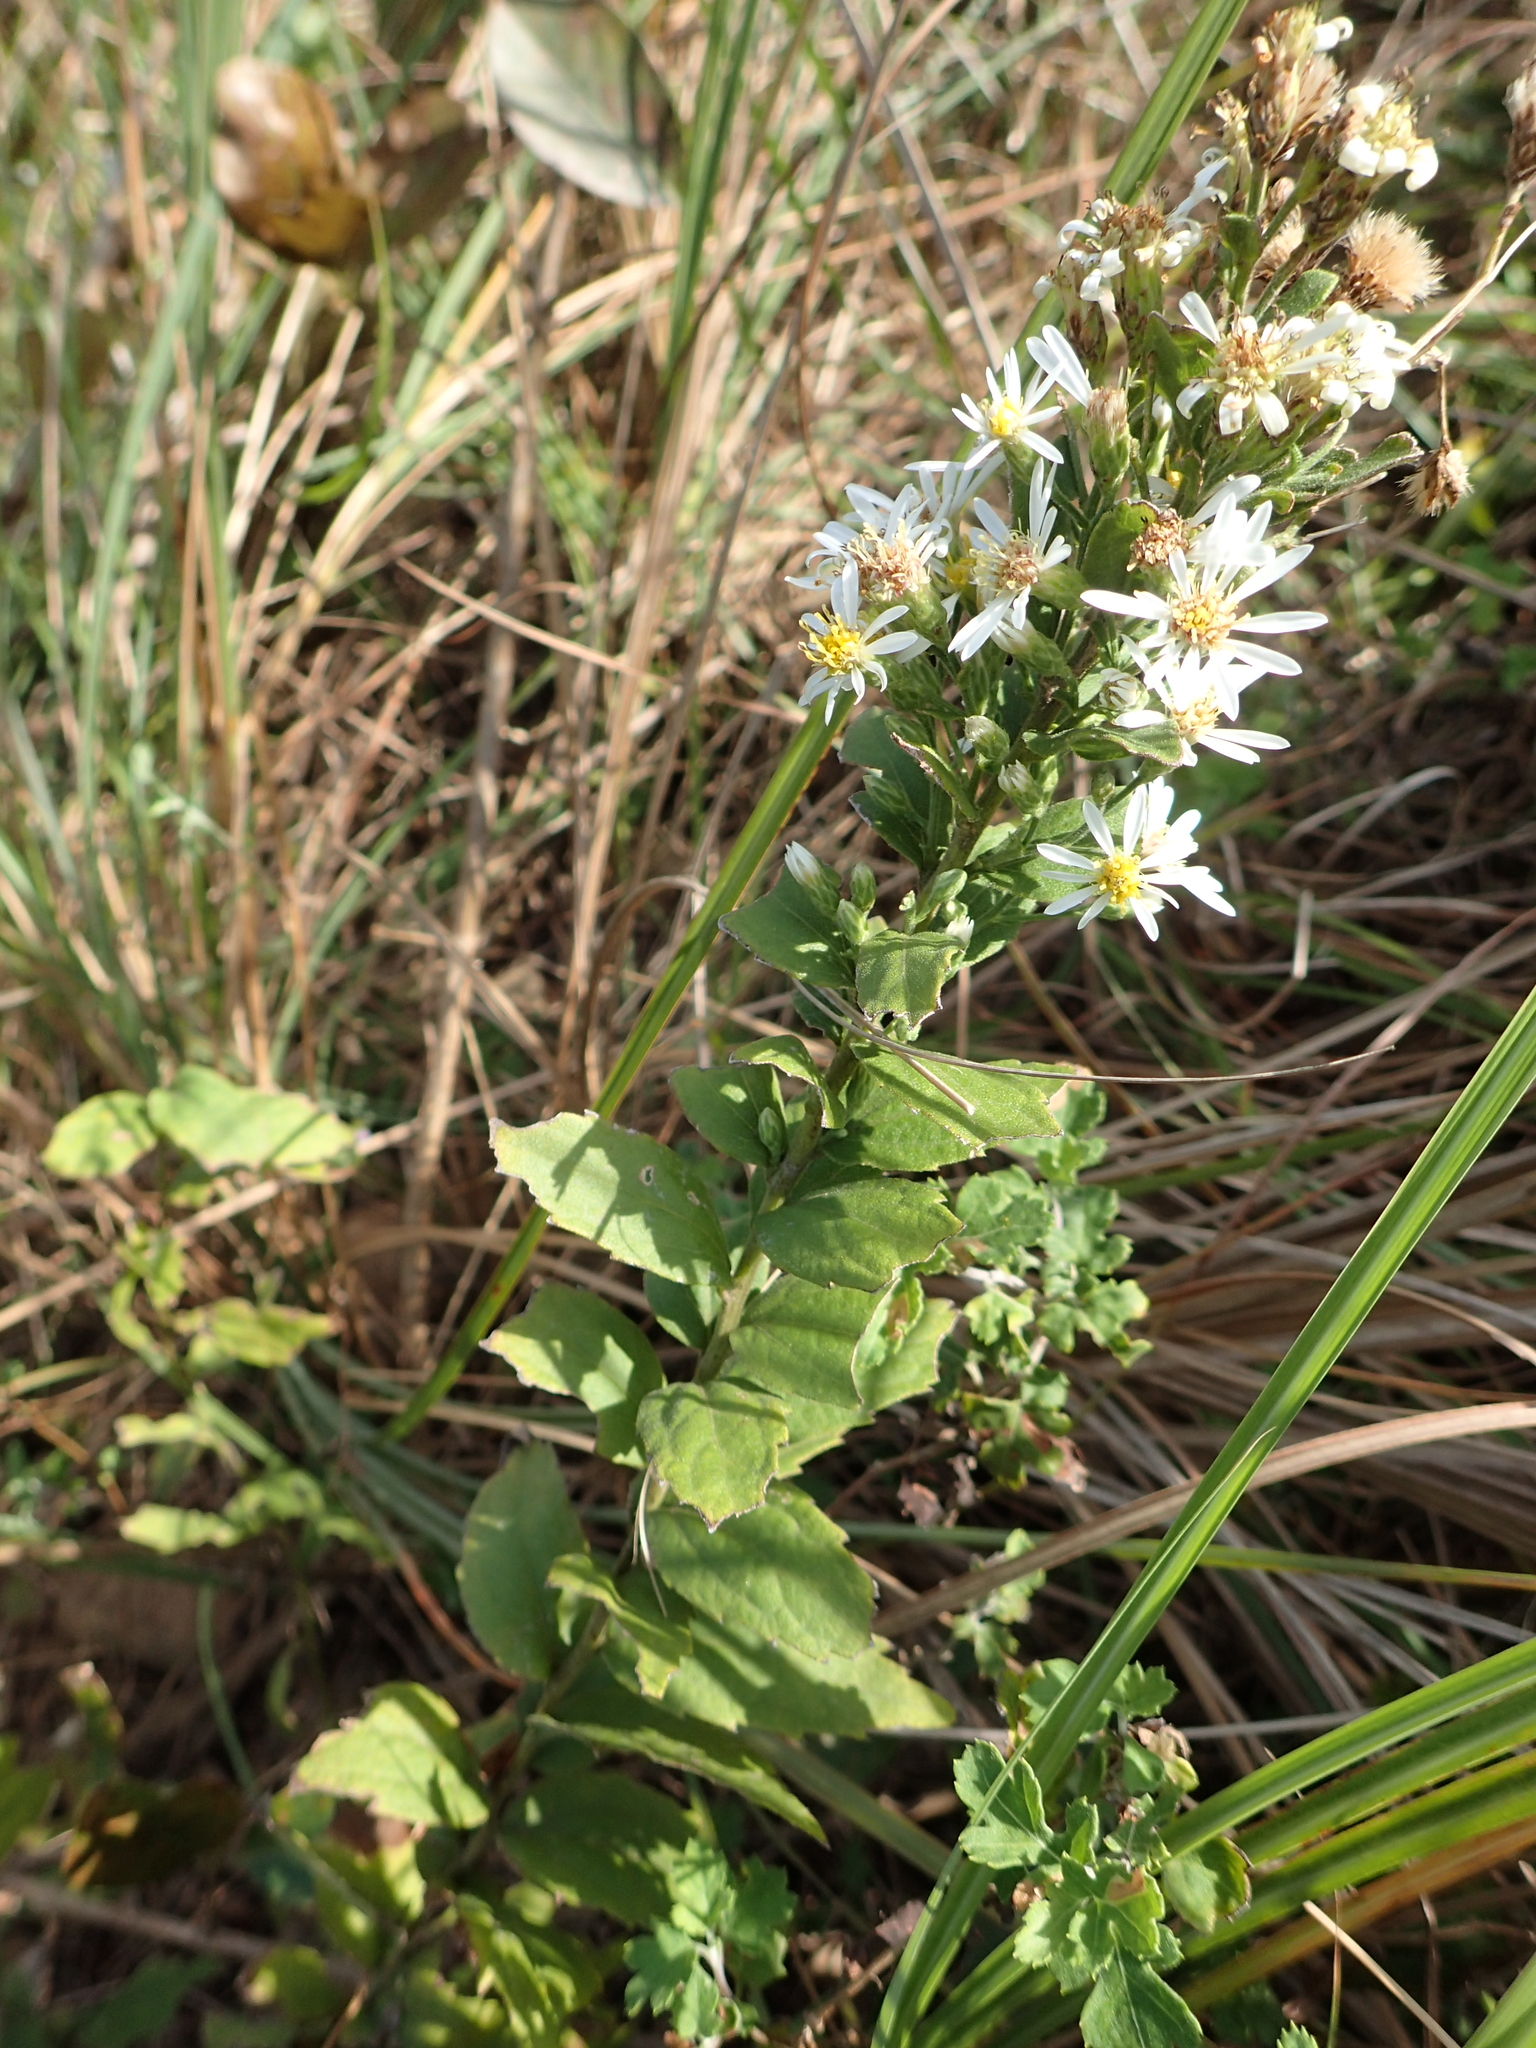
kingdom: Plantae
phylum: Tracheophyta
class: Magnoliopsida
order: Asterales
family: Asteraceae
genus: Aster
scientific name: Aster ovalifolius
